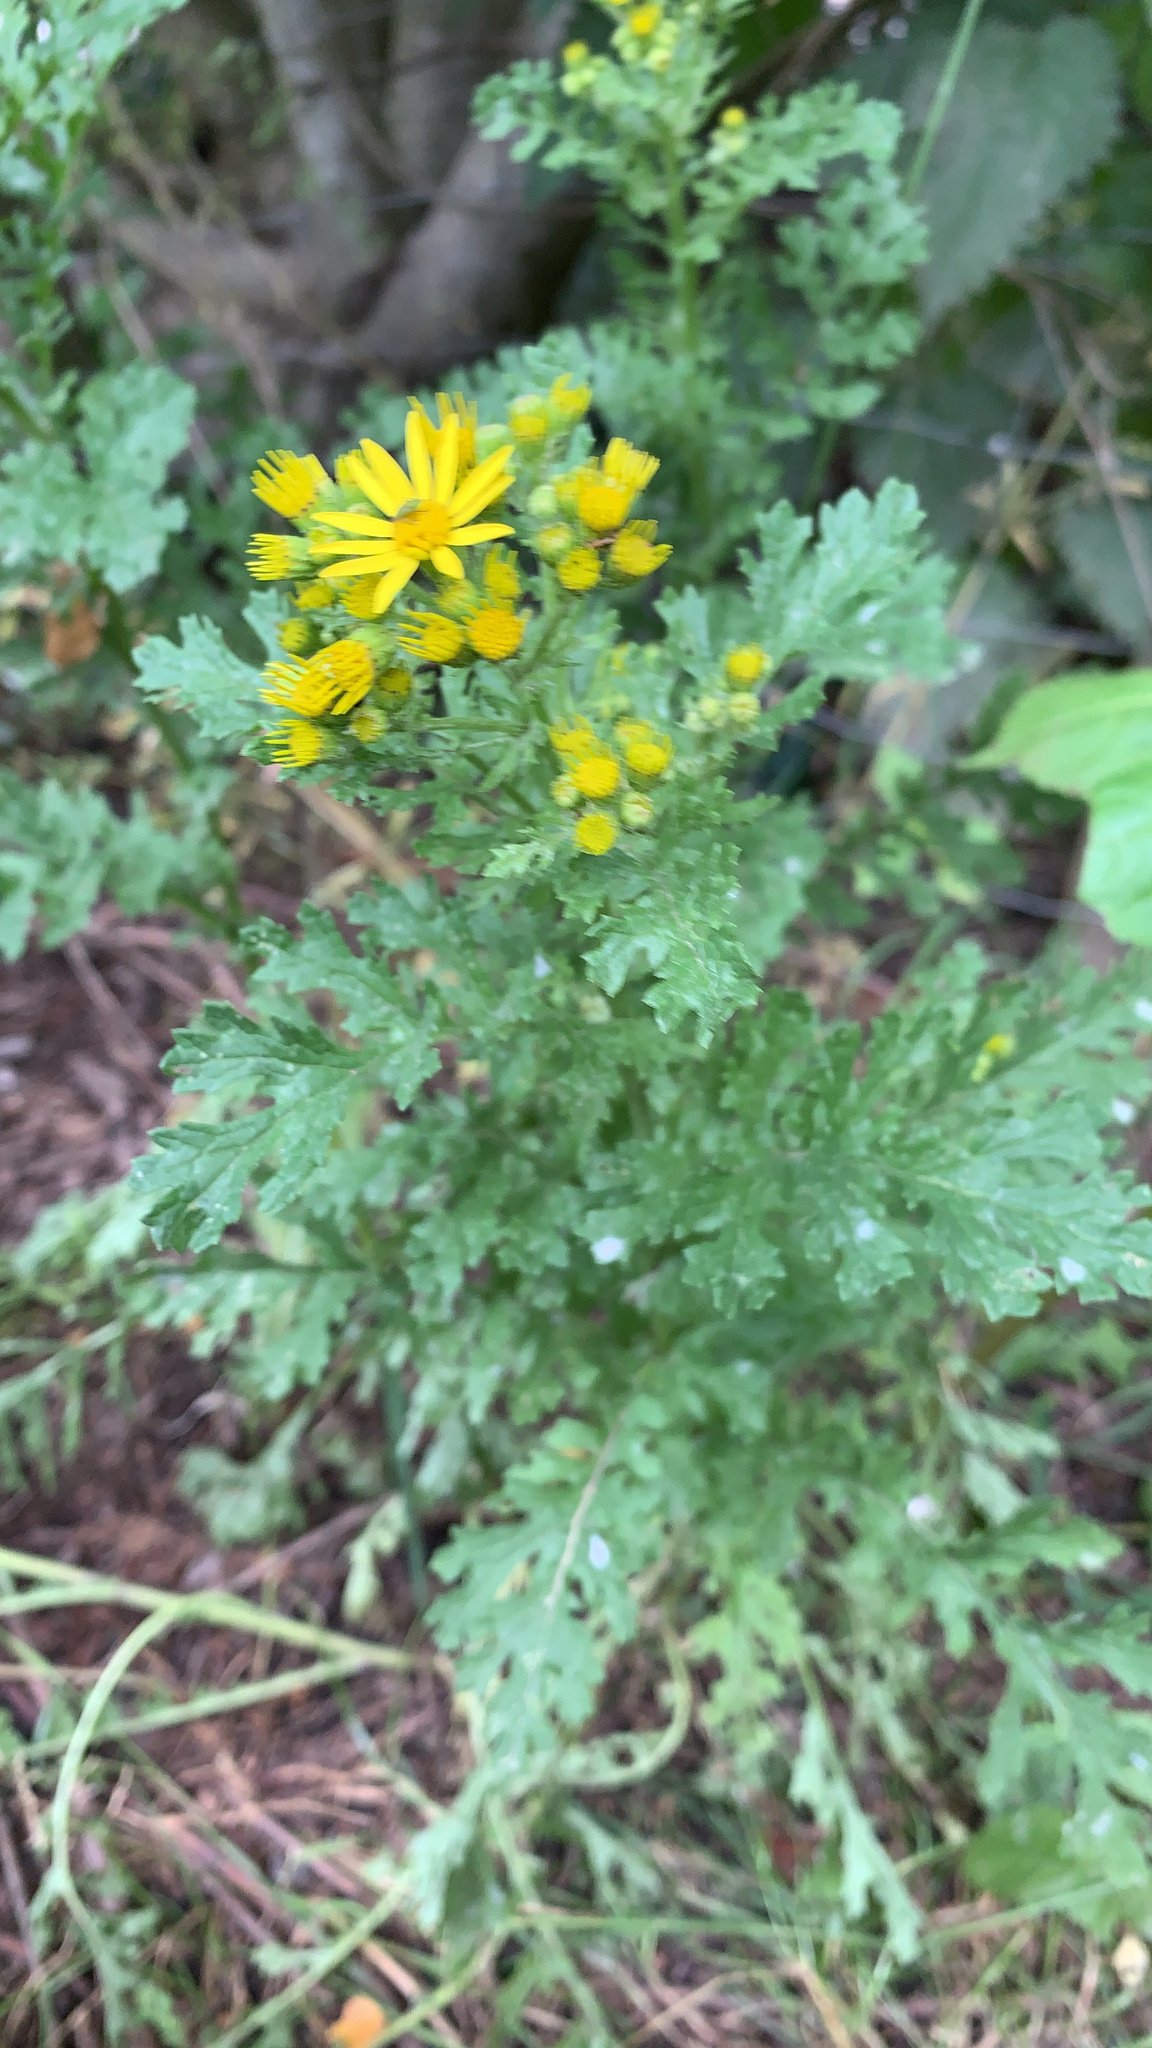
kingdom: Plantae
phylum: Tracheophyta
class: Magnoliopsida
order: Asterales
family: Asteraceae
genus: Jacobaea
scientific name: Jacobaea vulgaris
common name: Stinking willie
